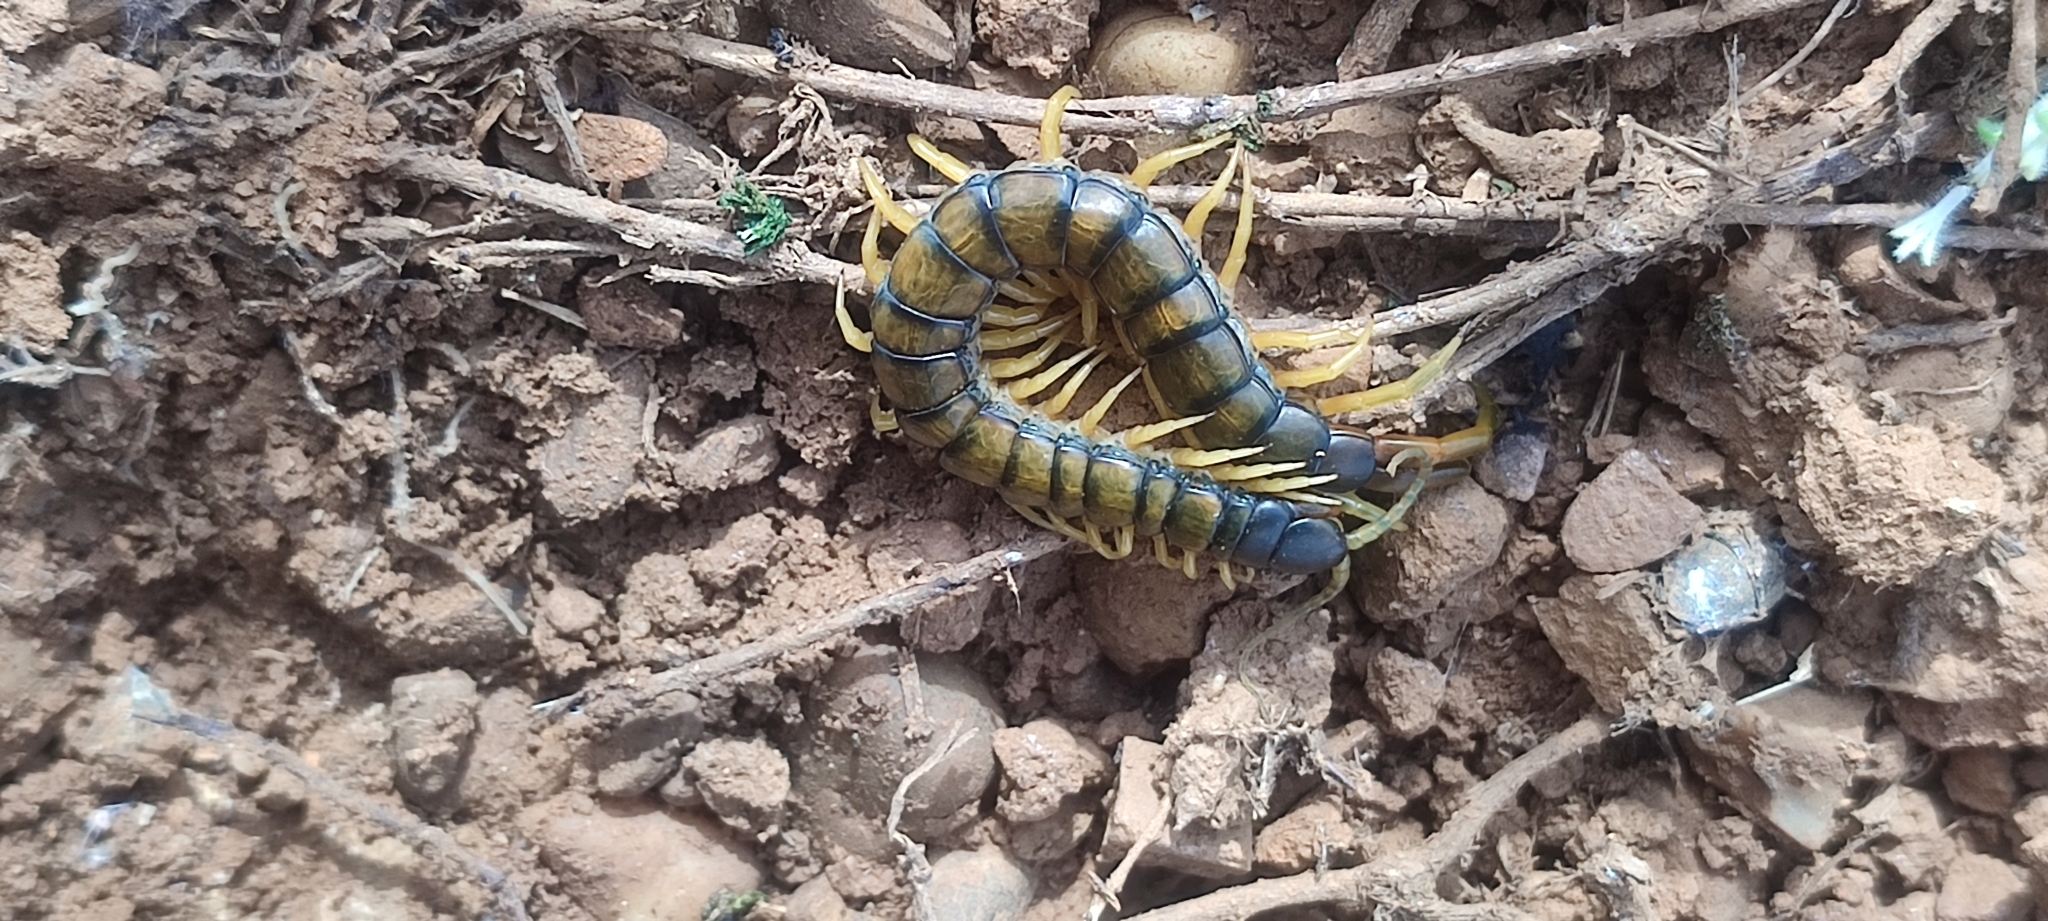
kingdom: Animalia
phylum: Arthropoda
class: Chilopoda
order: Scolopendromorpha
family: Scolopendridae
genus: Scolopendra
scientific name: Scolopendra cingulata
